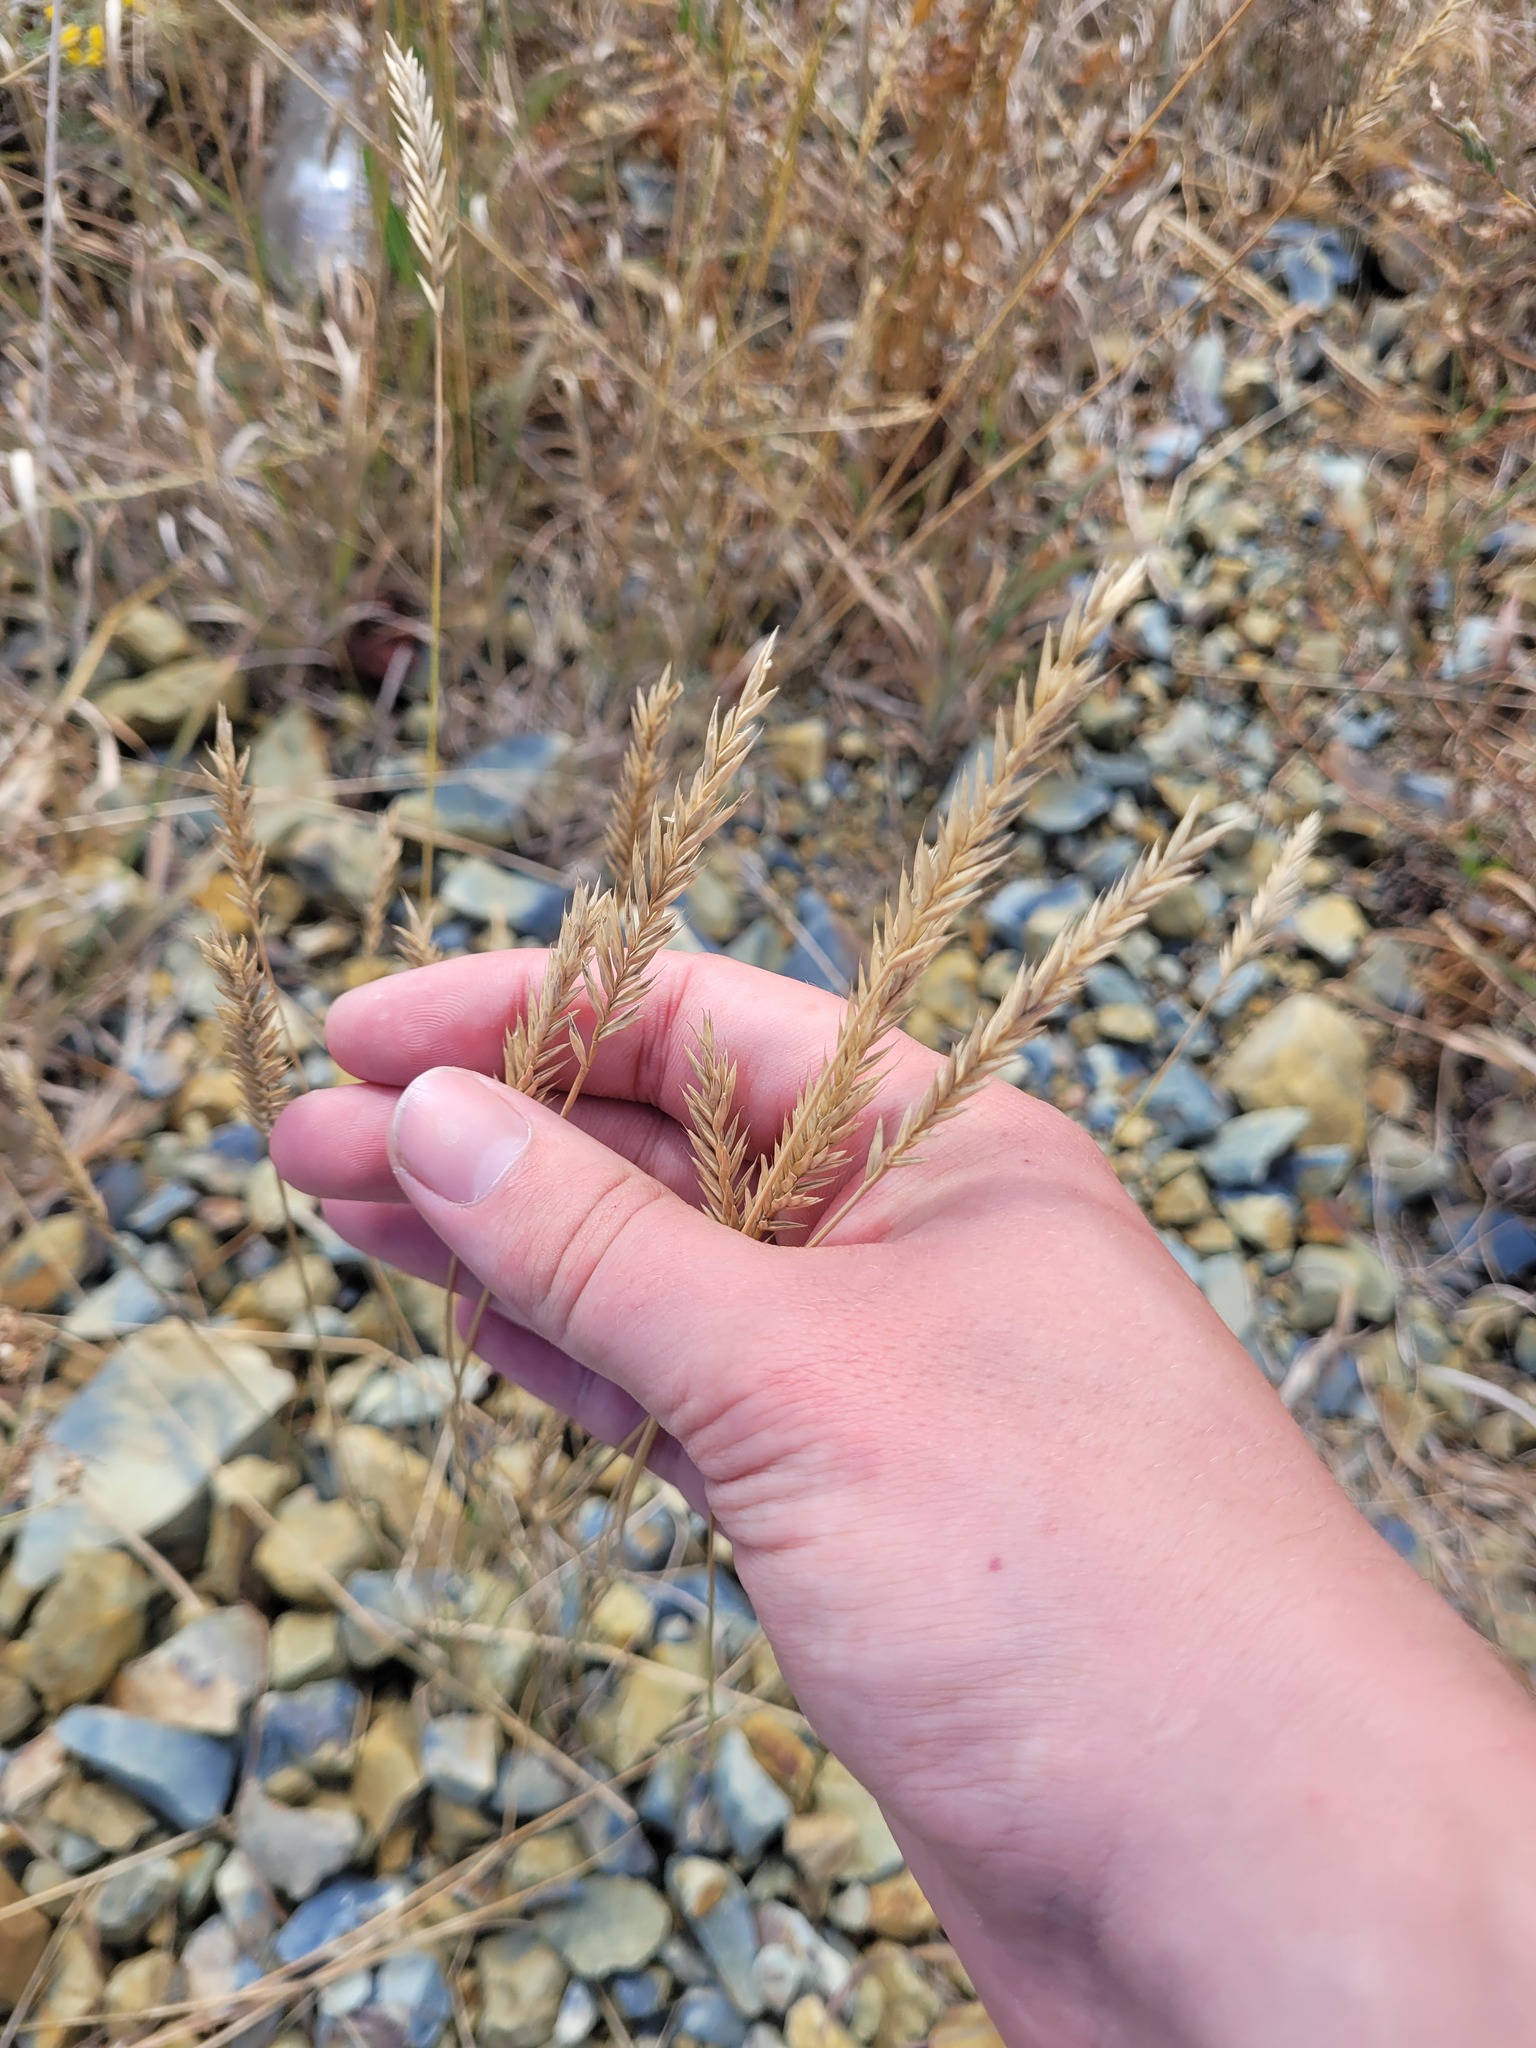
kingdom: Plantae
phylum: Tracheophyta
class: Liliopsida
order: Poales
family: Poaceae
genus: Agropyron
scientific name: Agropyron cristatum
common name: Crested wheatgrass
